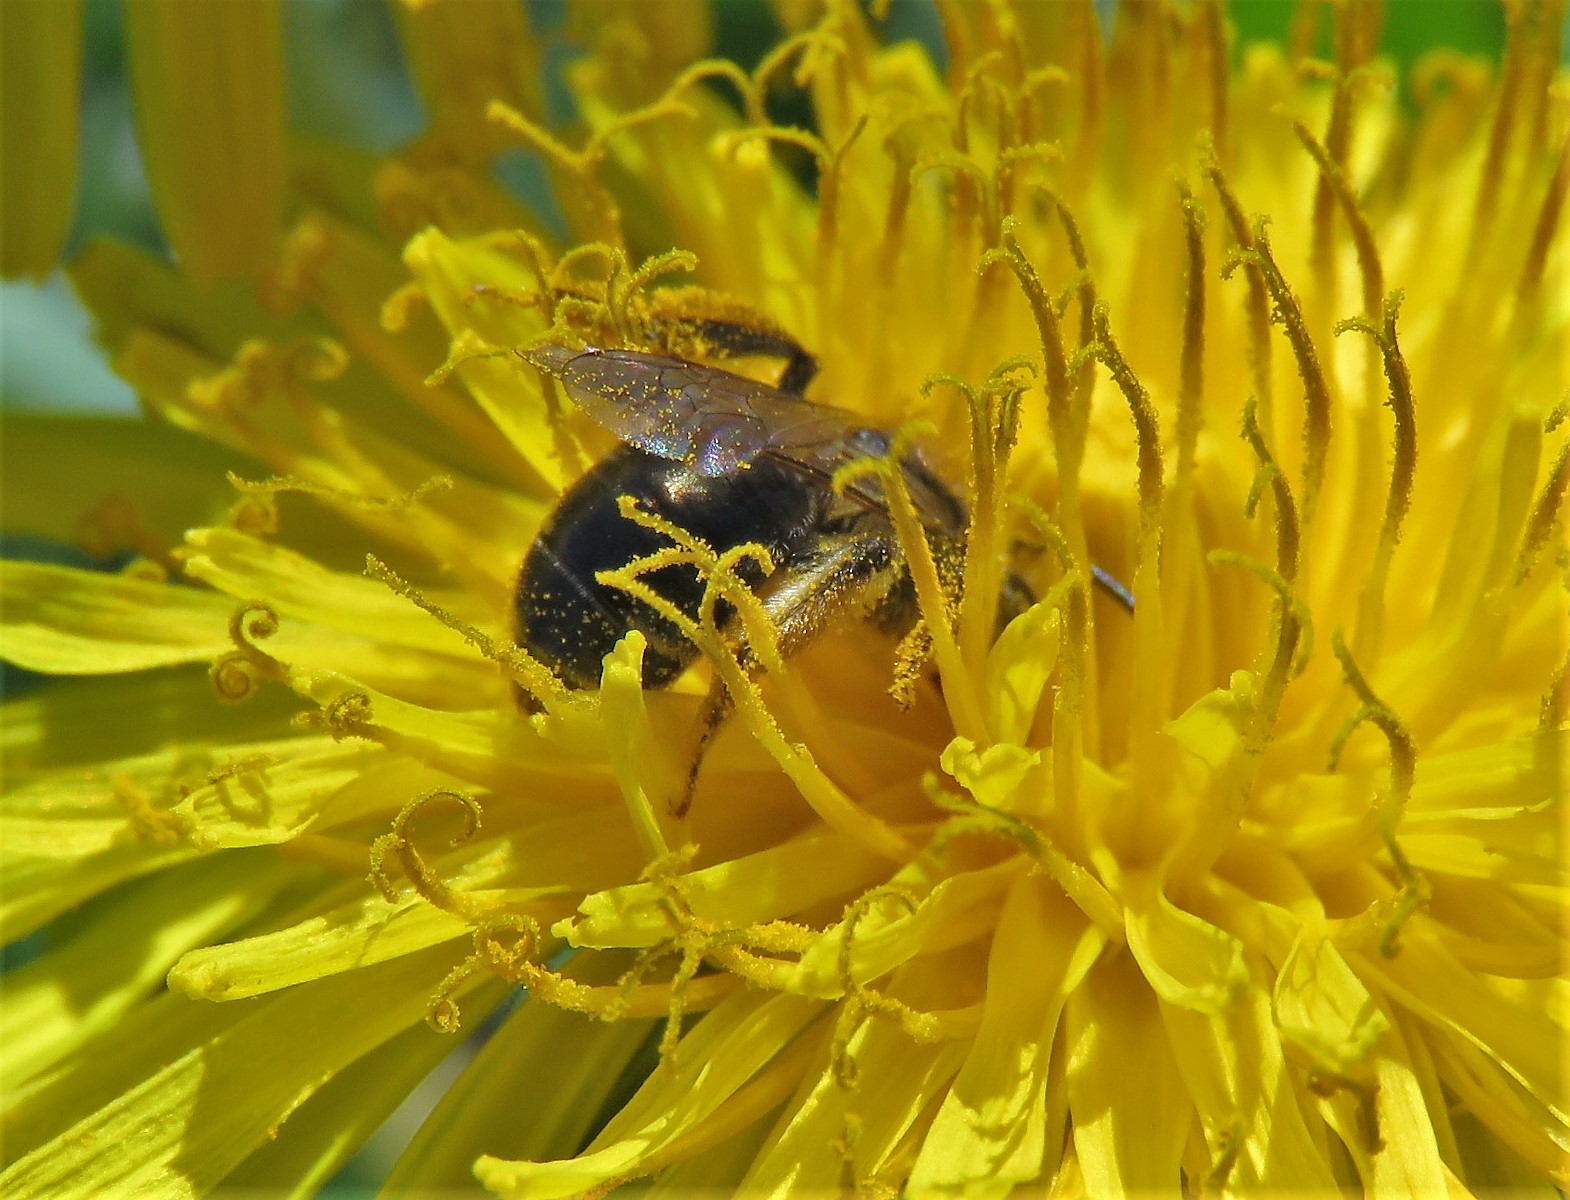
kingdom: Animalia
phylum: Arthropoda
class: Insecta
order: Hymenoptera
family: Andrenidae
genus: Andrena
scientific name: Andrena
